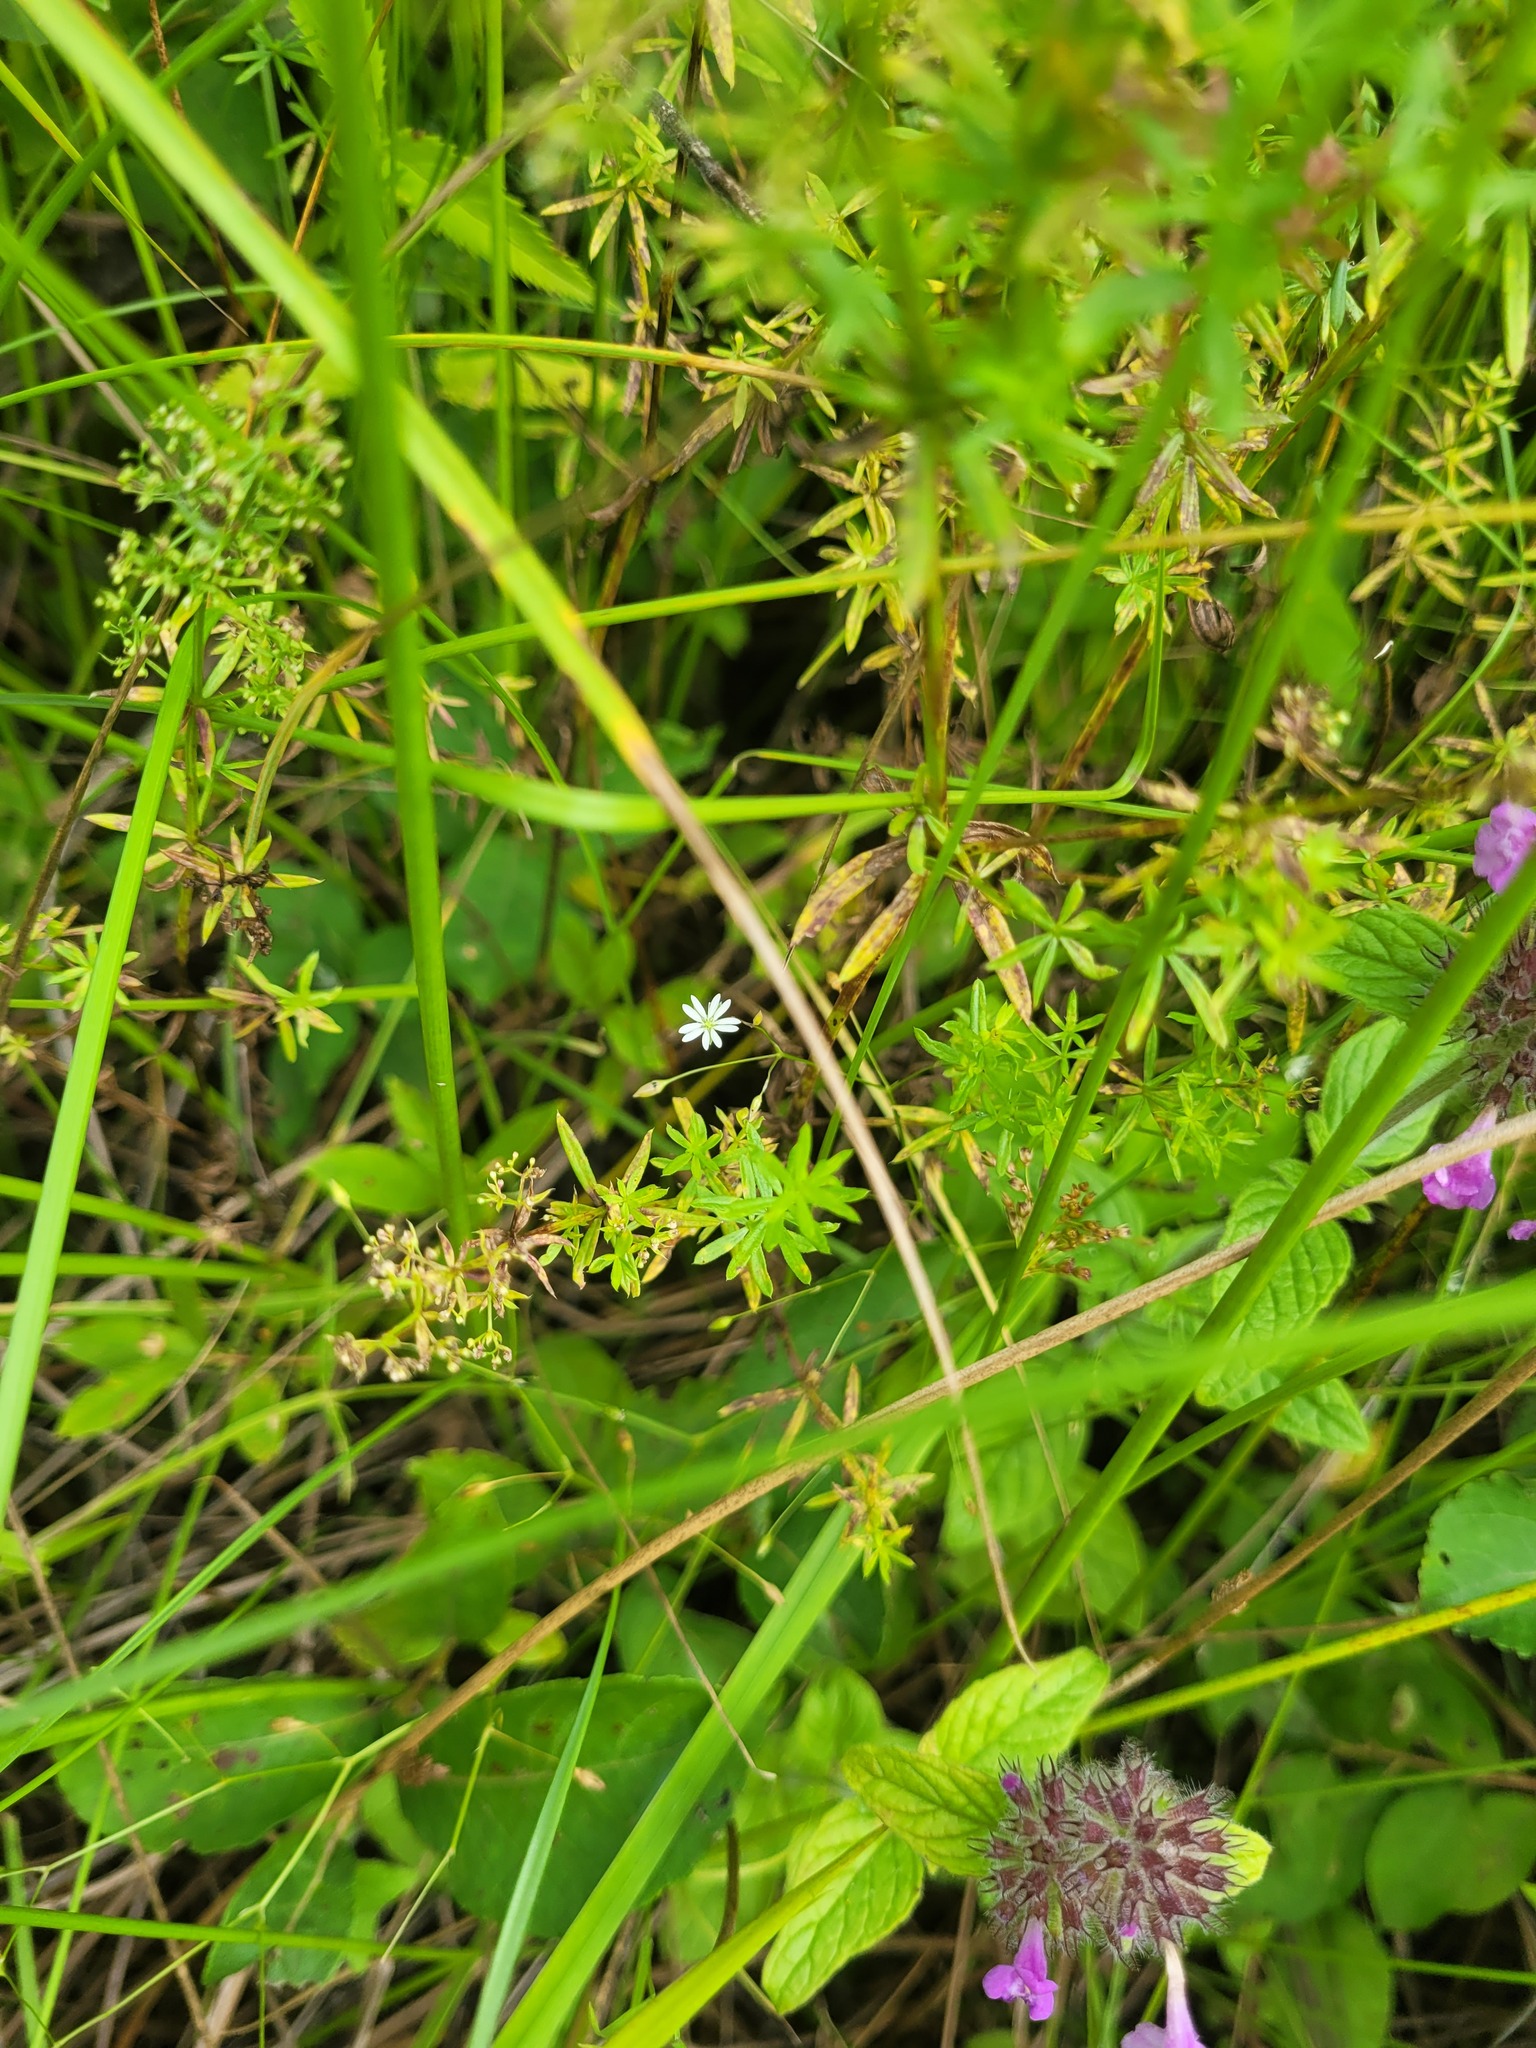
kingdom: Plantae
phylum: Tracheophyta
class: Magnoliopsida
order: Caryophyllales
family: Caryophyllaceae
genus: Stellaria
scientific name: Stellaria graminea
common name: Grass-like starwort
